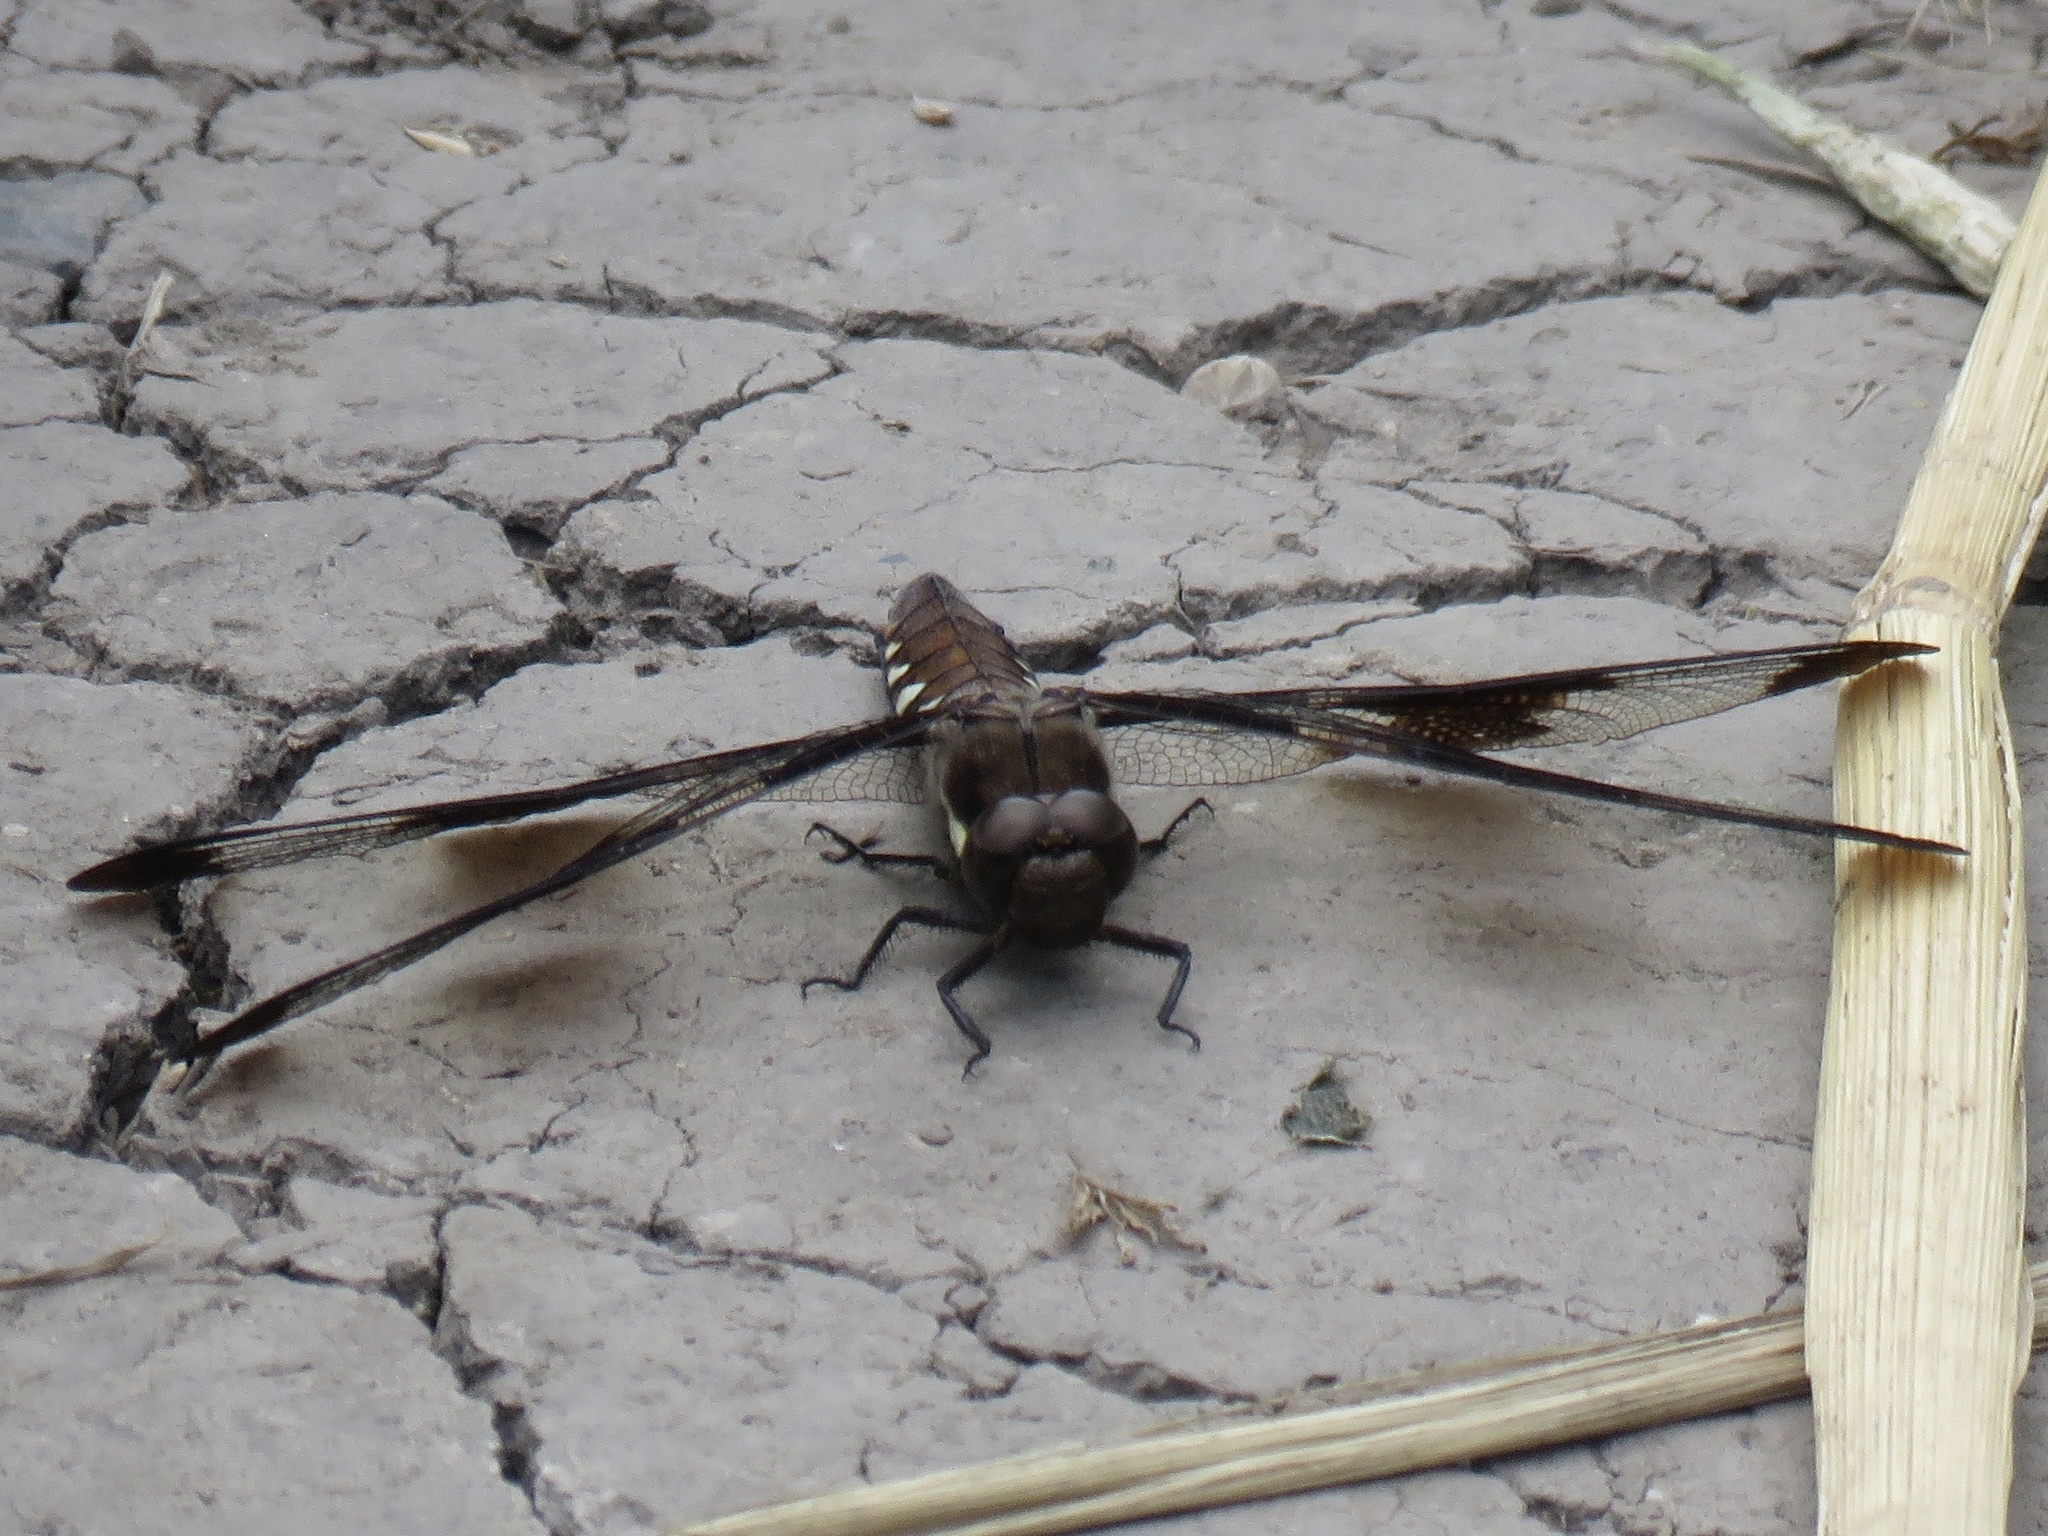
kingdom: Animalia
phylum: Arthropoda
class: Insecta
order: Odonata
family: Libellulidae
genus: Plathemis
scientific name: Plathemis lydia
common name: Common whitetail
